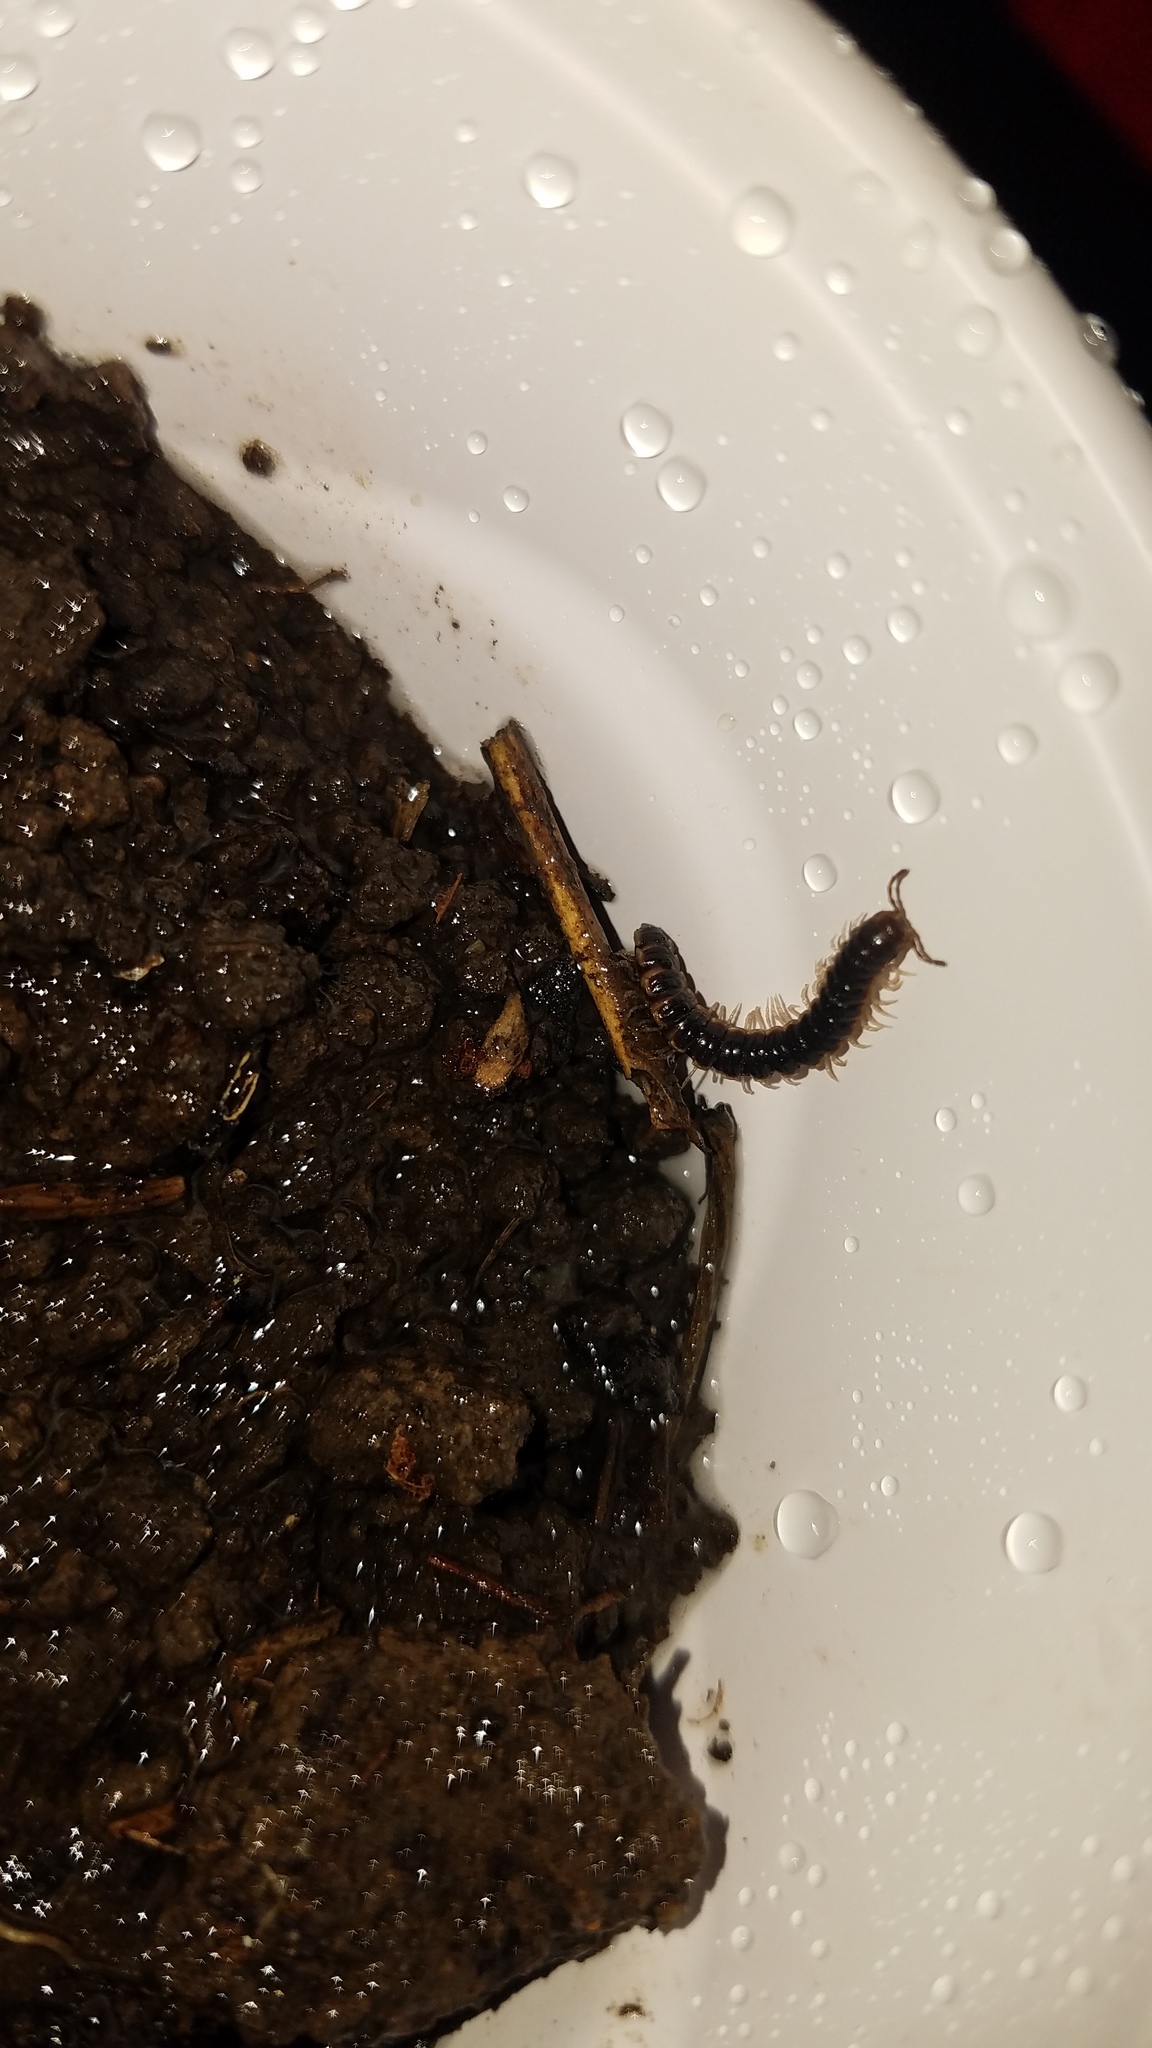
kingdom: Animalia
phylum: Arthropoda
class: Diplopoda
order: Polydesmida
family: Paradoxosomatidae
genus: Oxidus
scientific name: Oxidus gracilis
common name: Greenhouse millipede
